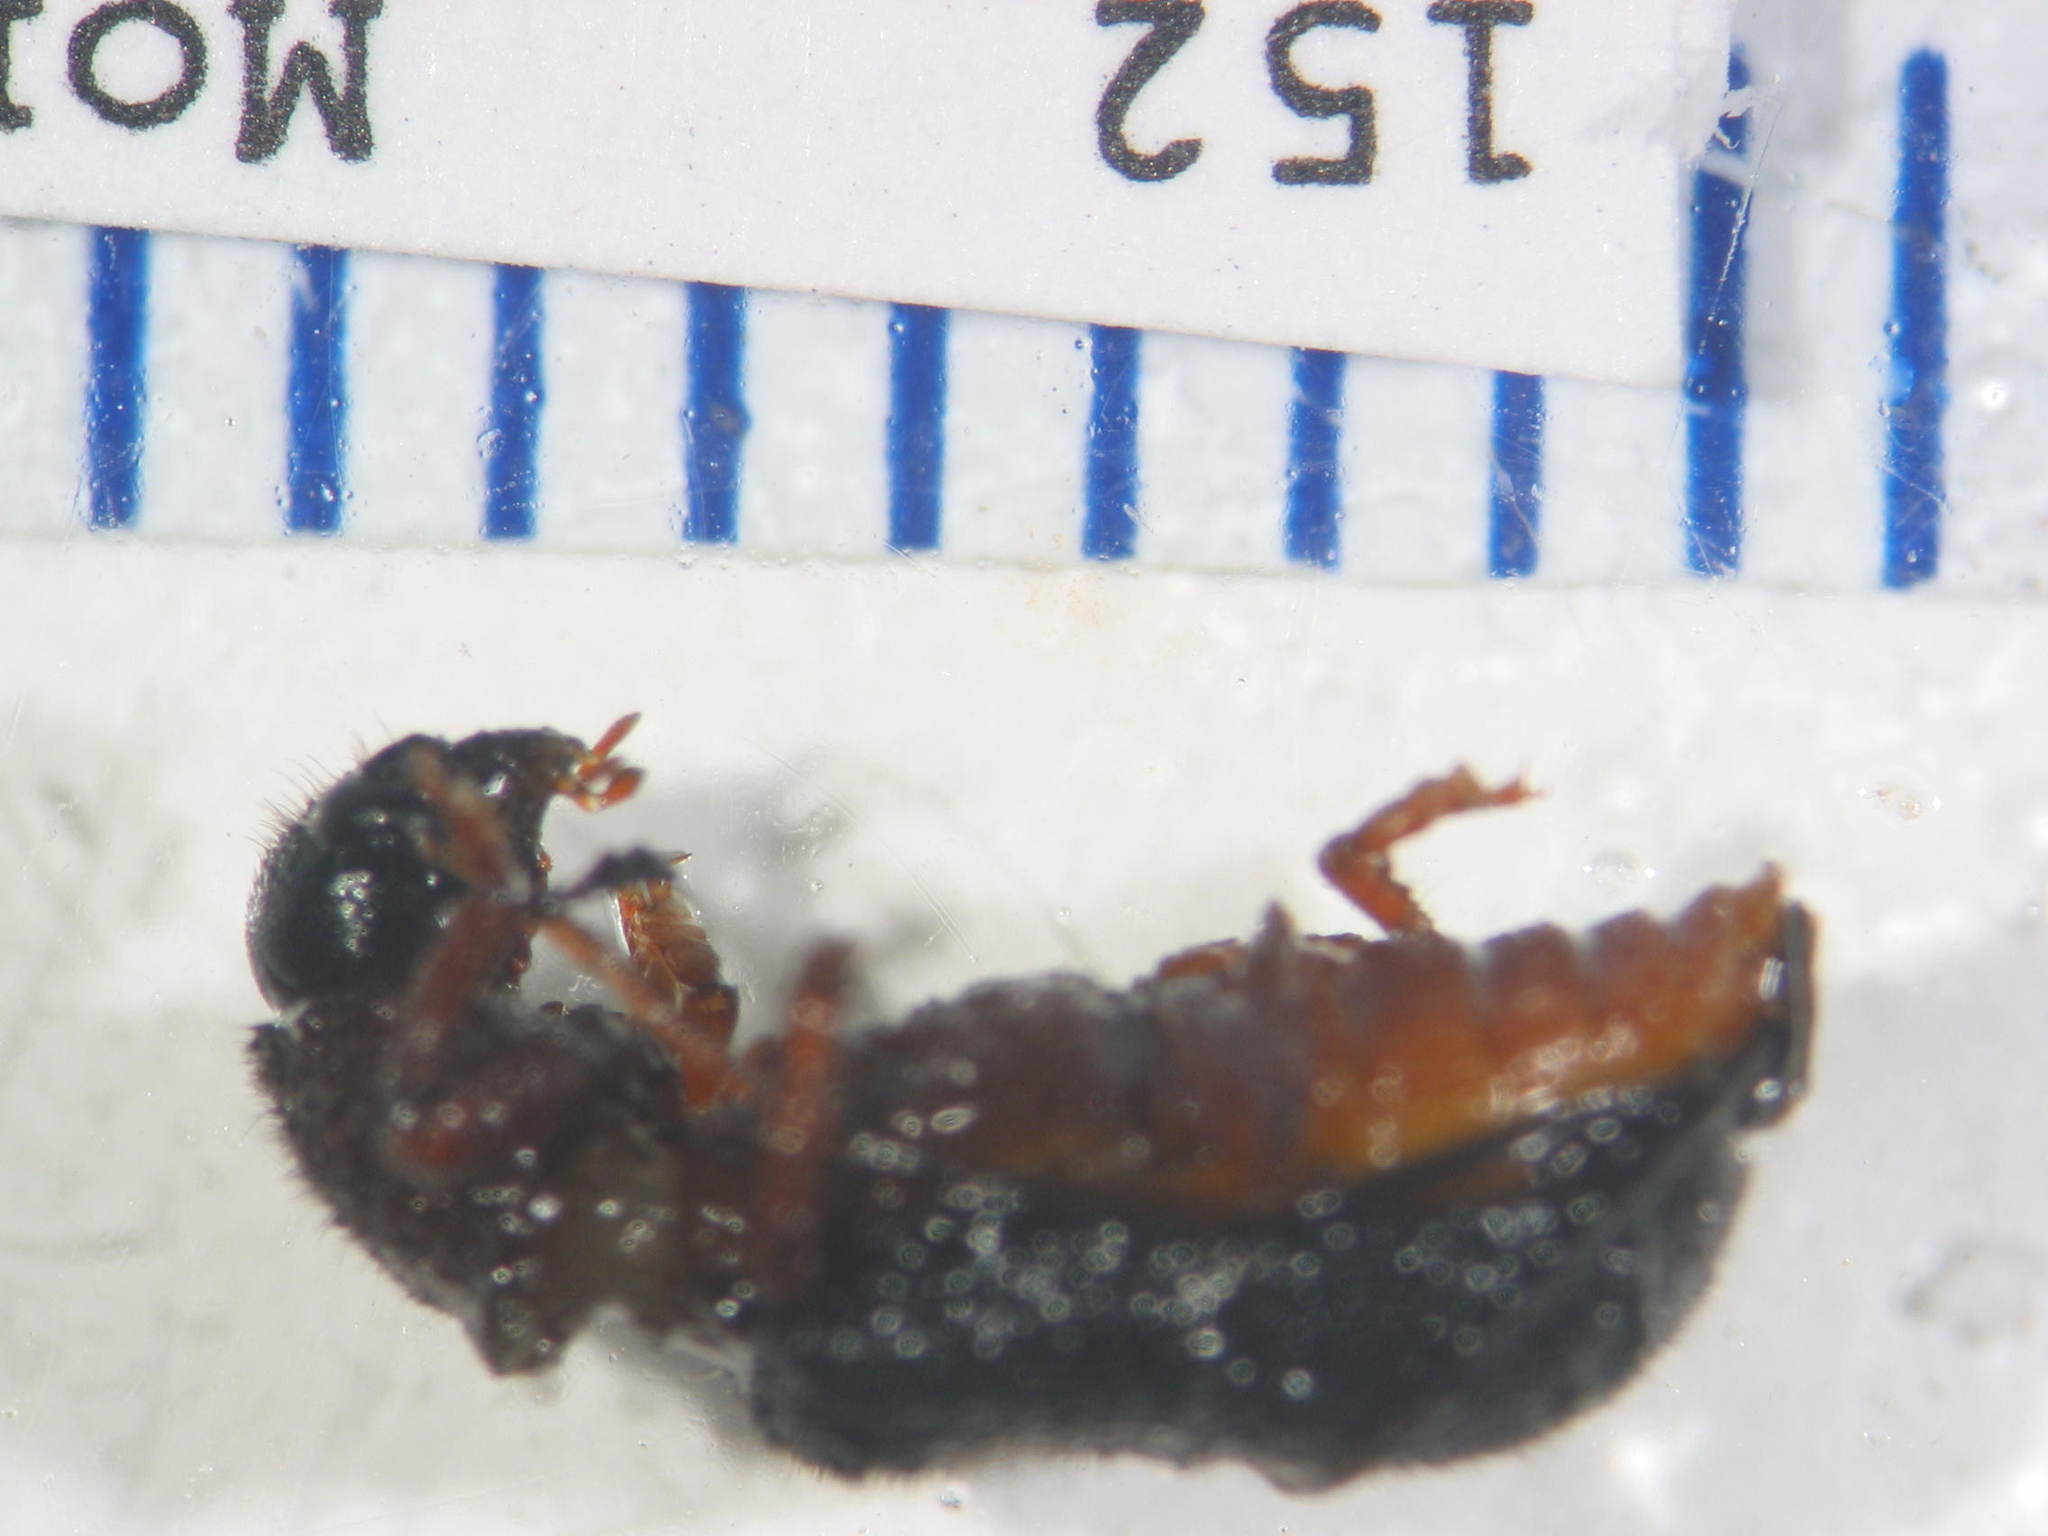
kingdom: Animalia
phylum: Arthropoda
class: Insecta
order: Coleoptera
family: Cleridae
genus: Parapylus
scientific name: Parapylus
